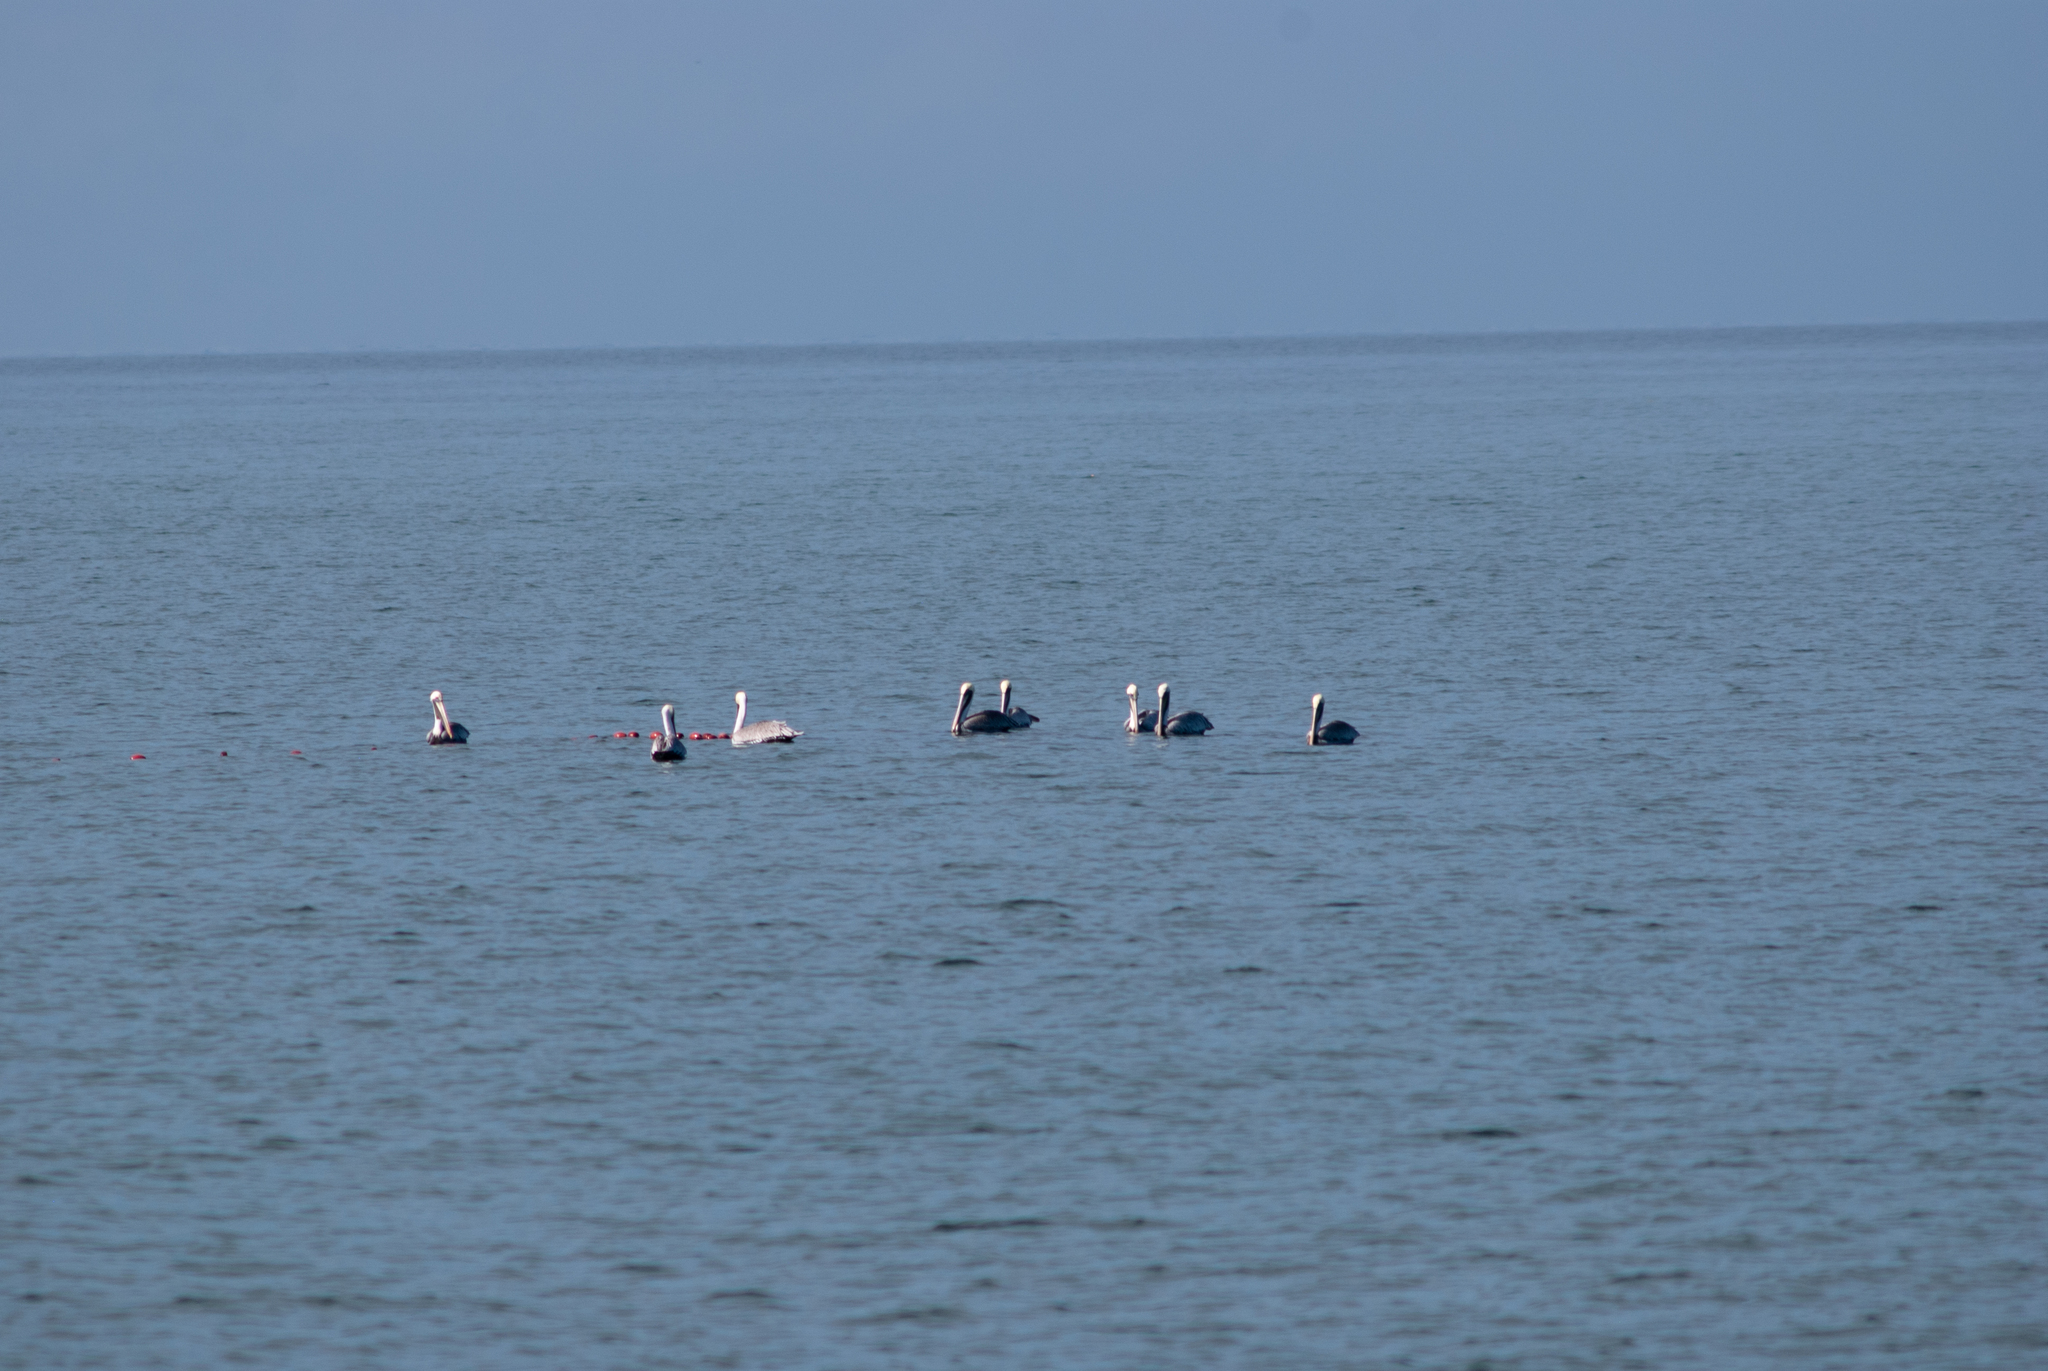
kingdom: Animalia
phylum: Chordata
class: Aves
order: Pelecaniformes
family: Pelecanidae
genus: Pelecanus
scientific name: Pelecanus occidentalis
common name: Brown pelican
